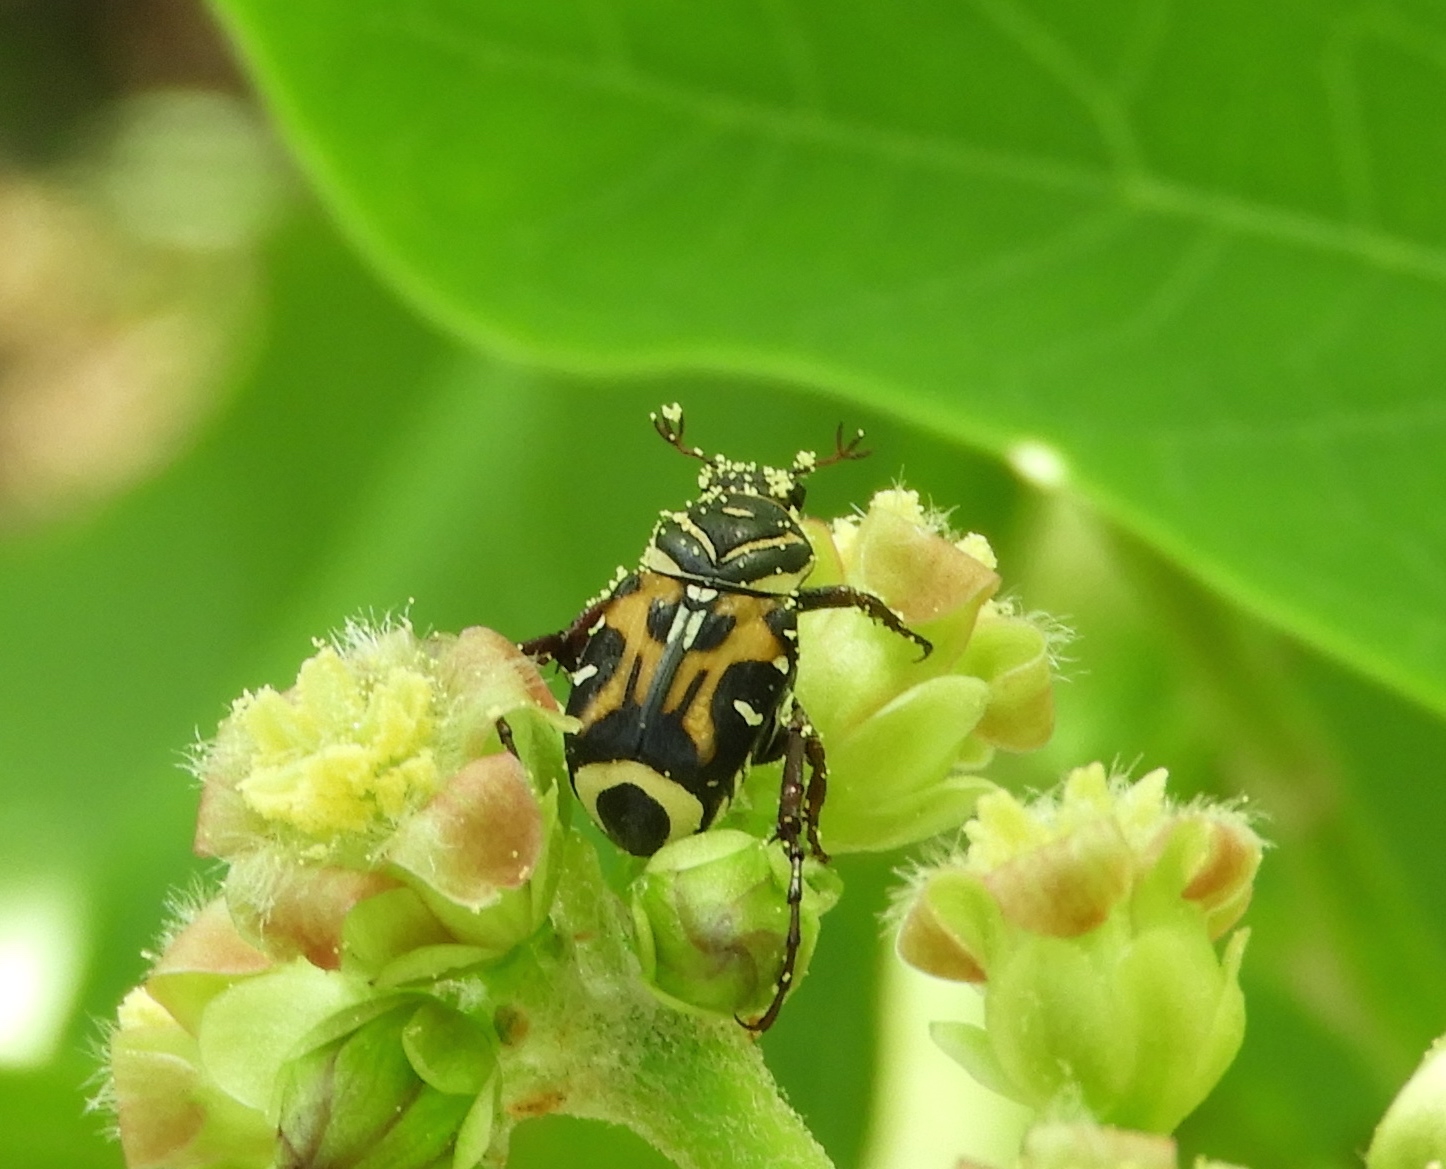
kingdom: Animalia
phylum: Arthropoda
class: Insecta
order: Coleoptera
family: Scarabaeidae
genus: Trigonopeltastes
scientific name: Trigonopeltastes sallaei
